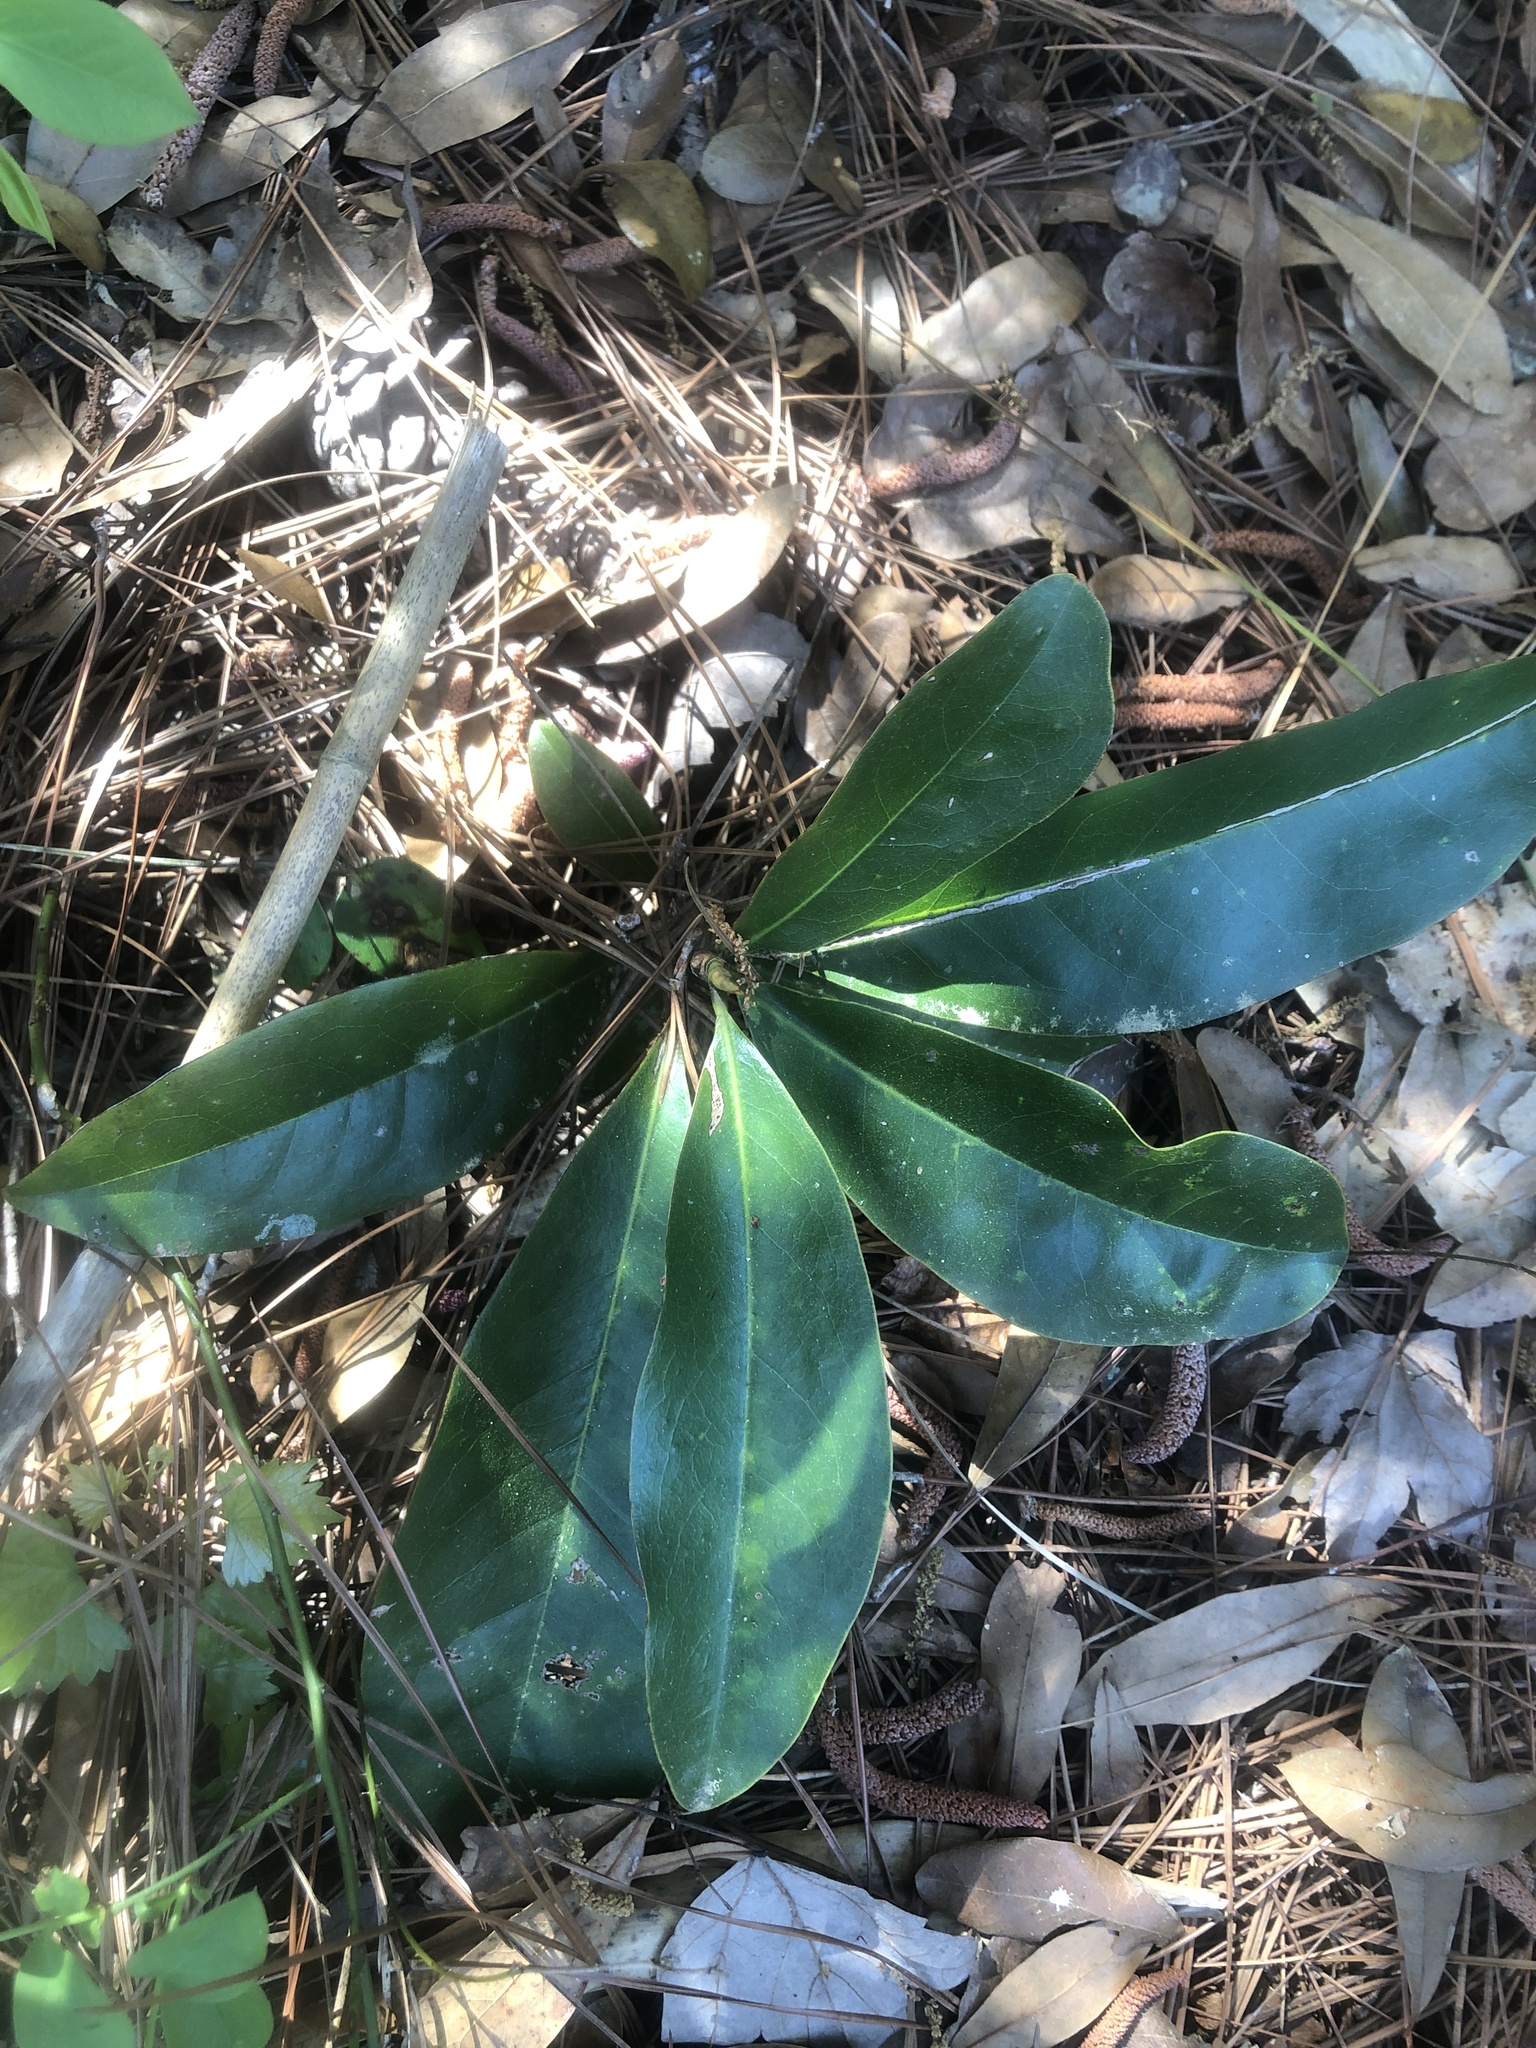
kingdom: Plantae
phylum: Tracheophyta
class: Magnoliopsida
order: Magnoliales
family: Magnoliaceae
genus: Magnolia
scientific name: Magnolia grandiflora
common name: Southern magnolia
